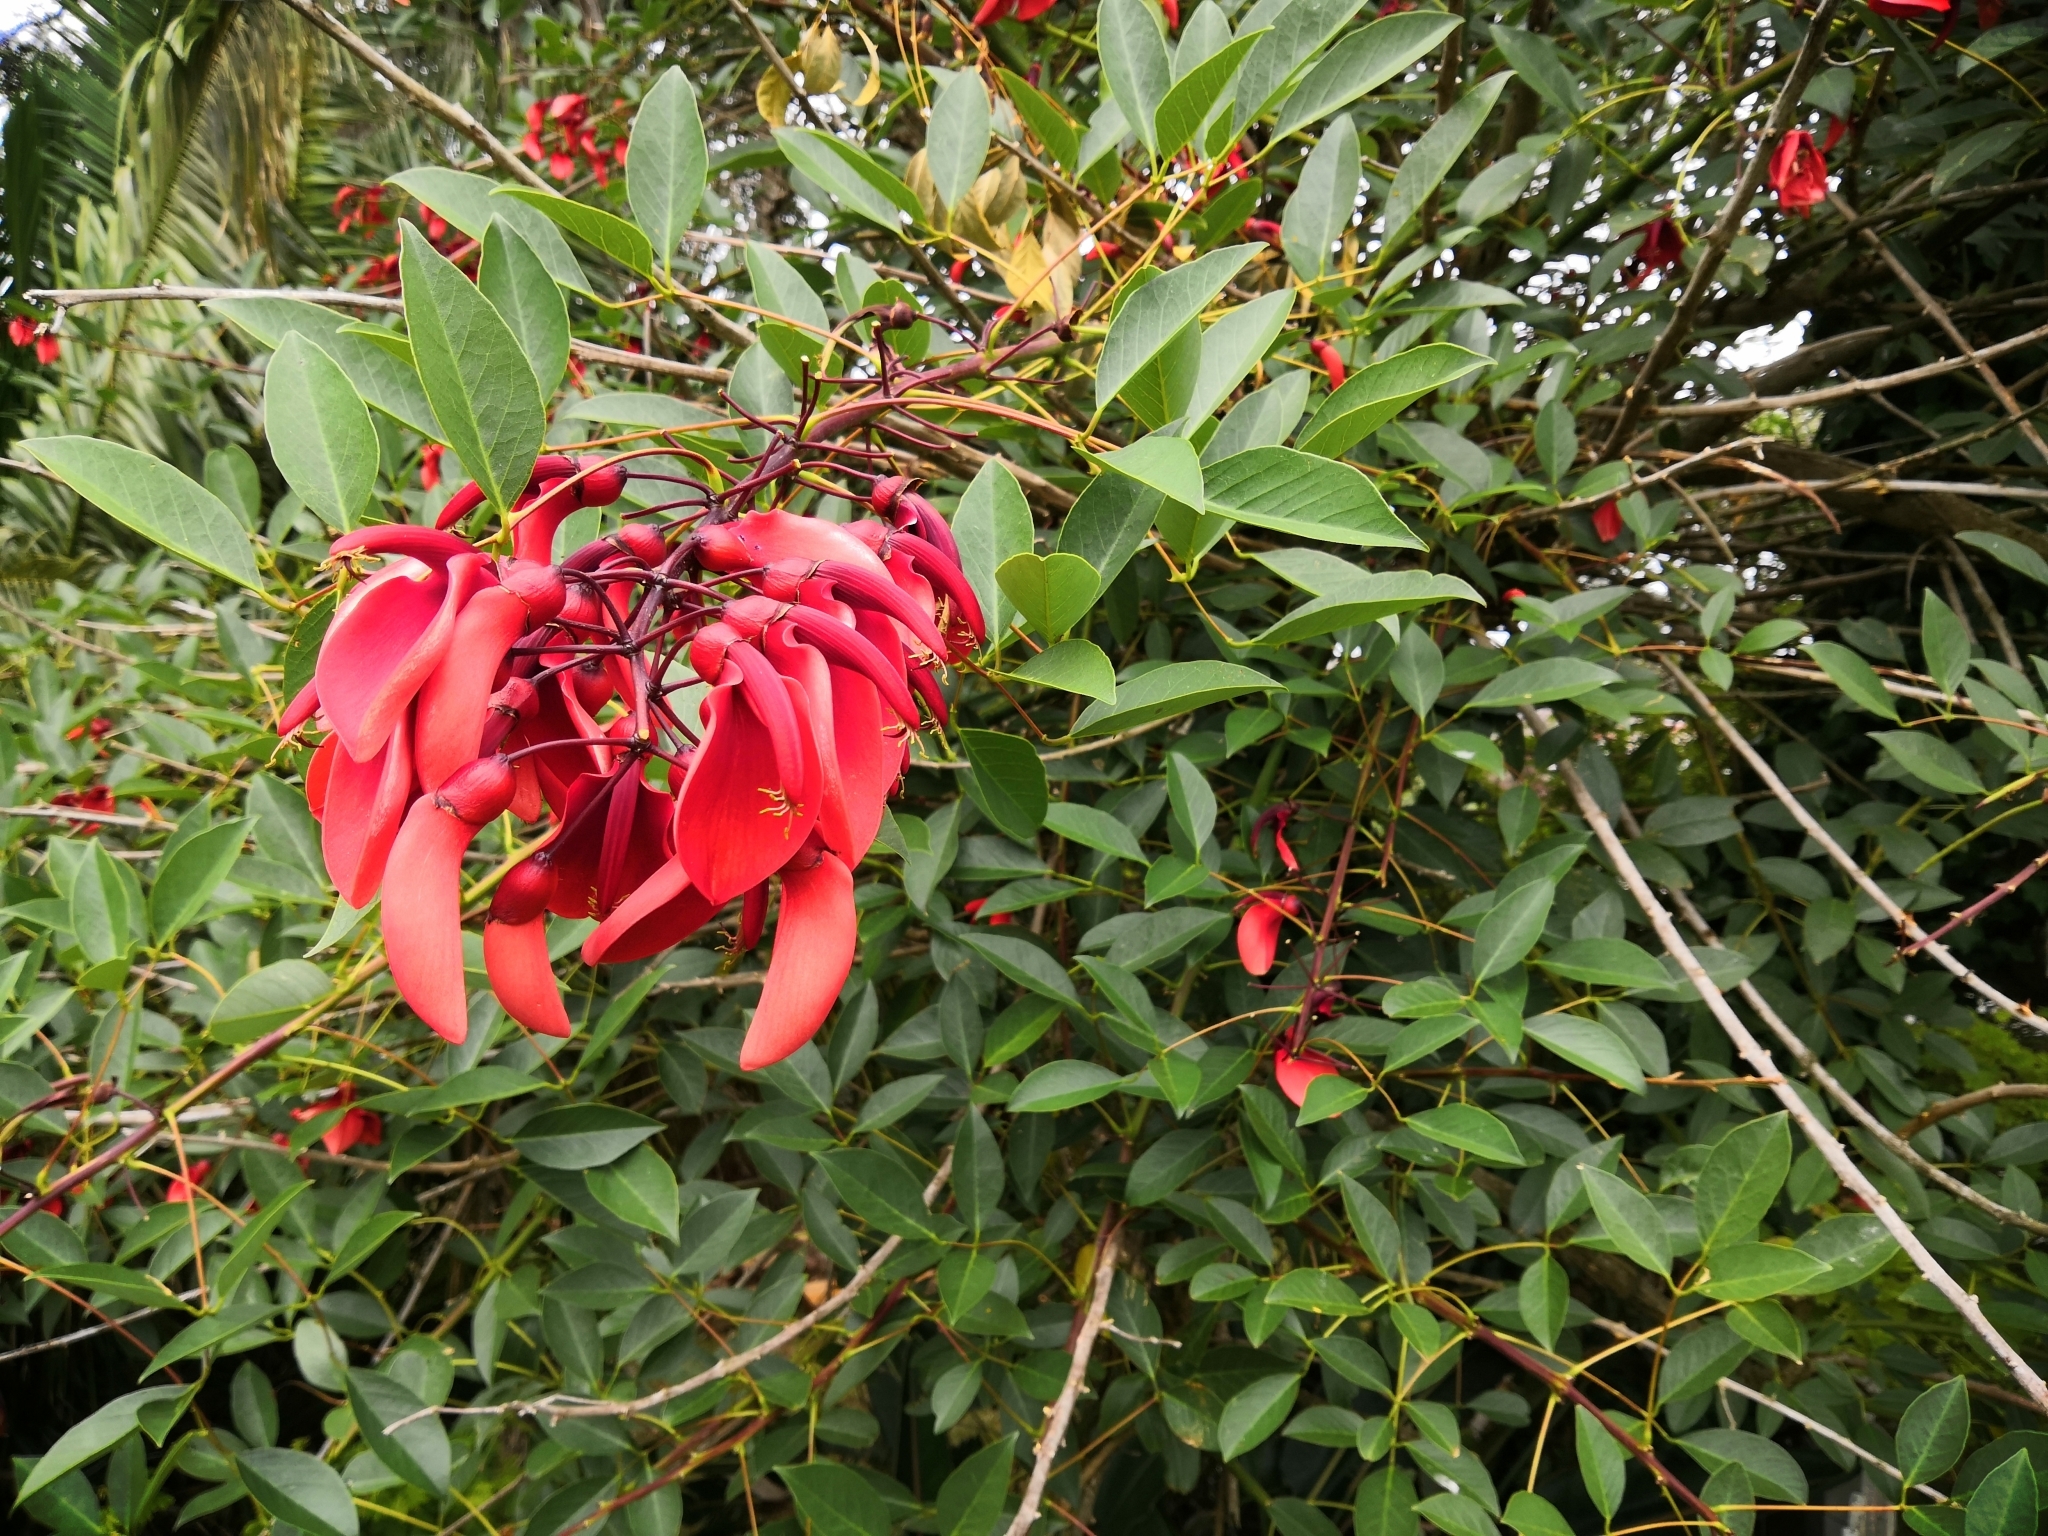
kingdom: Plantae
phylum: Tracheophyta
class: Magnoliopsida
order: Fabales
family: Fabaceae
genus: Erythrina
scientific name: Erythrina crista-galli
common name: Cockspur coral tree
